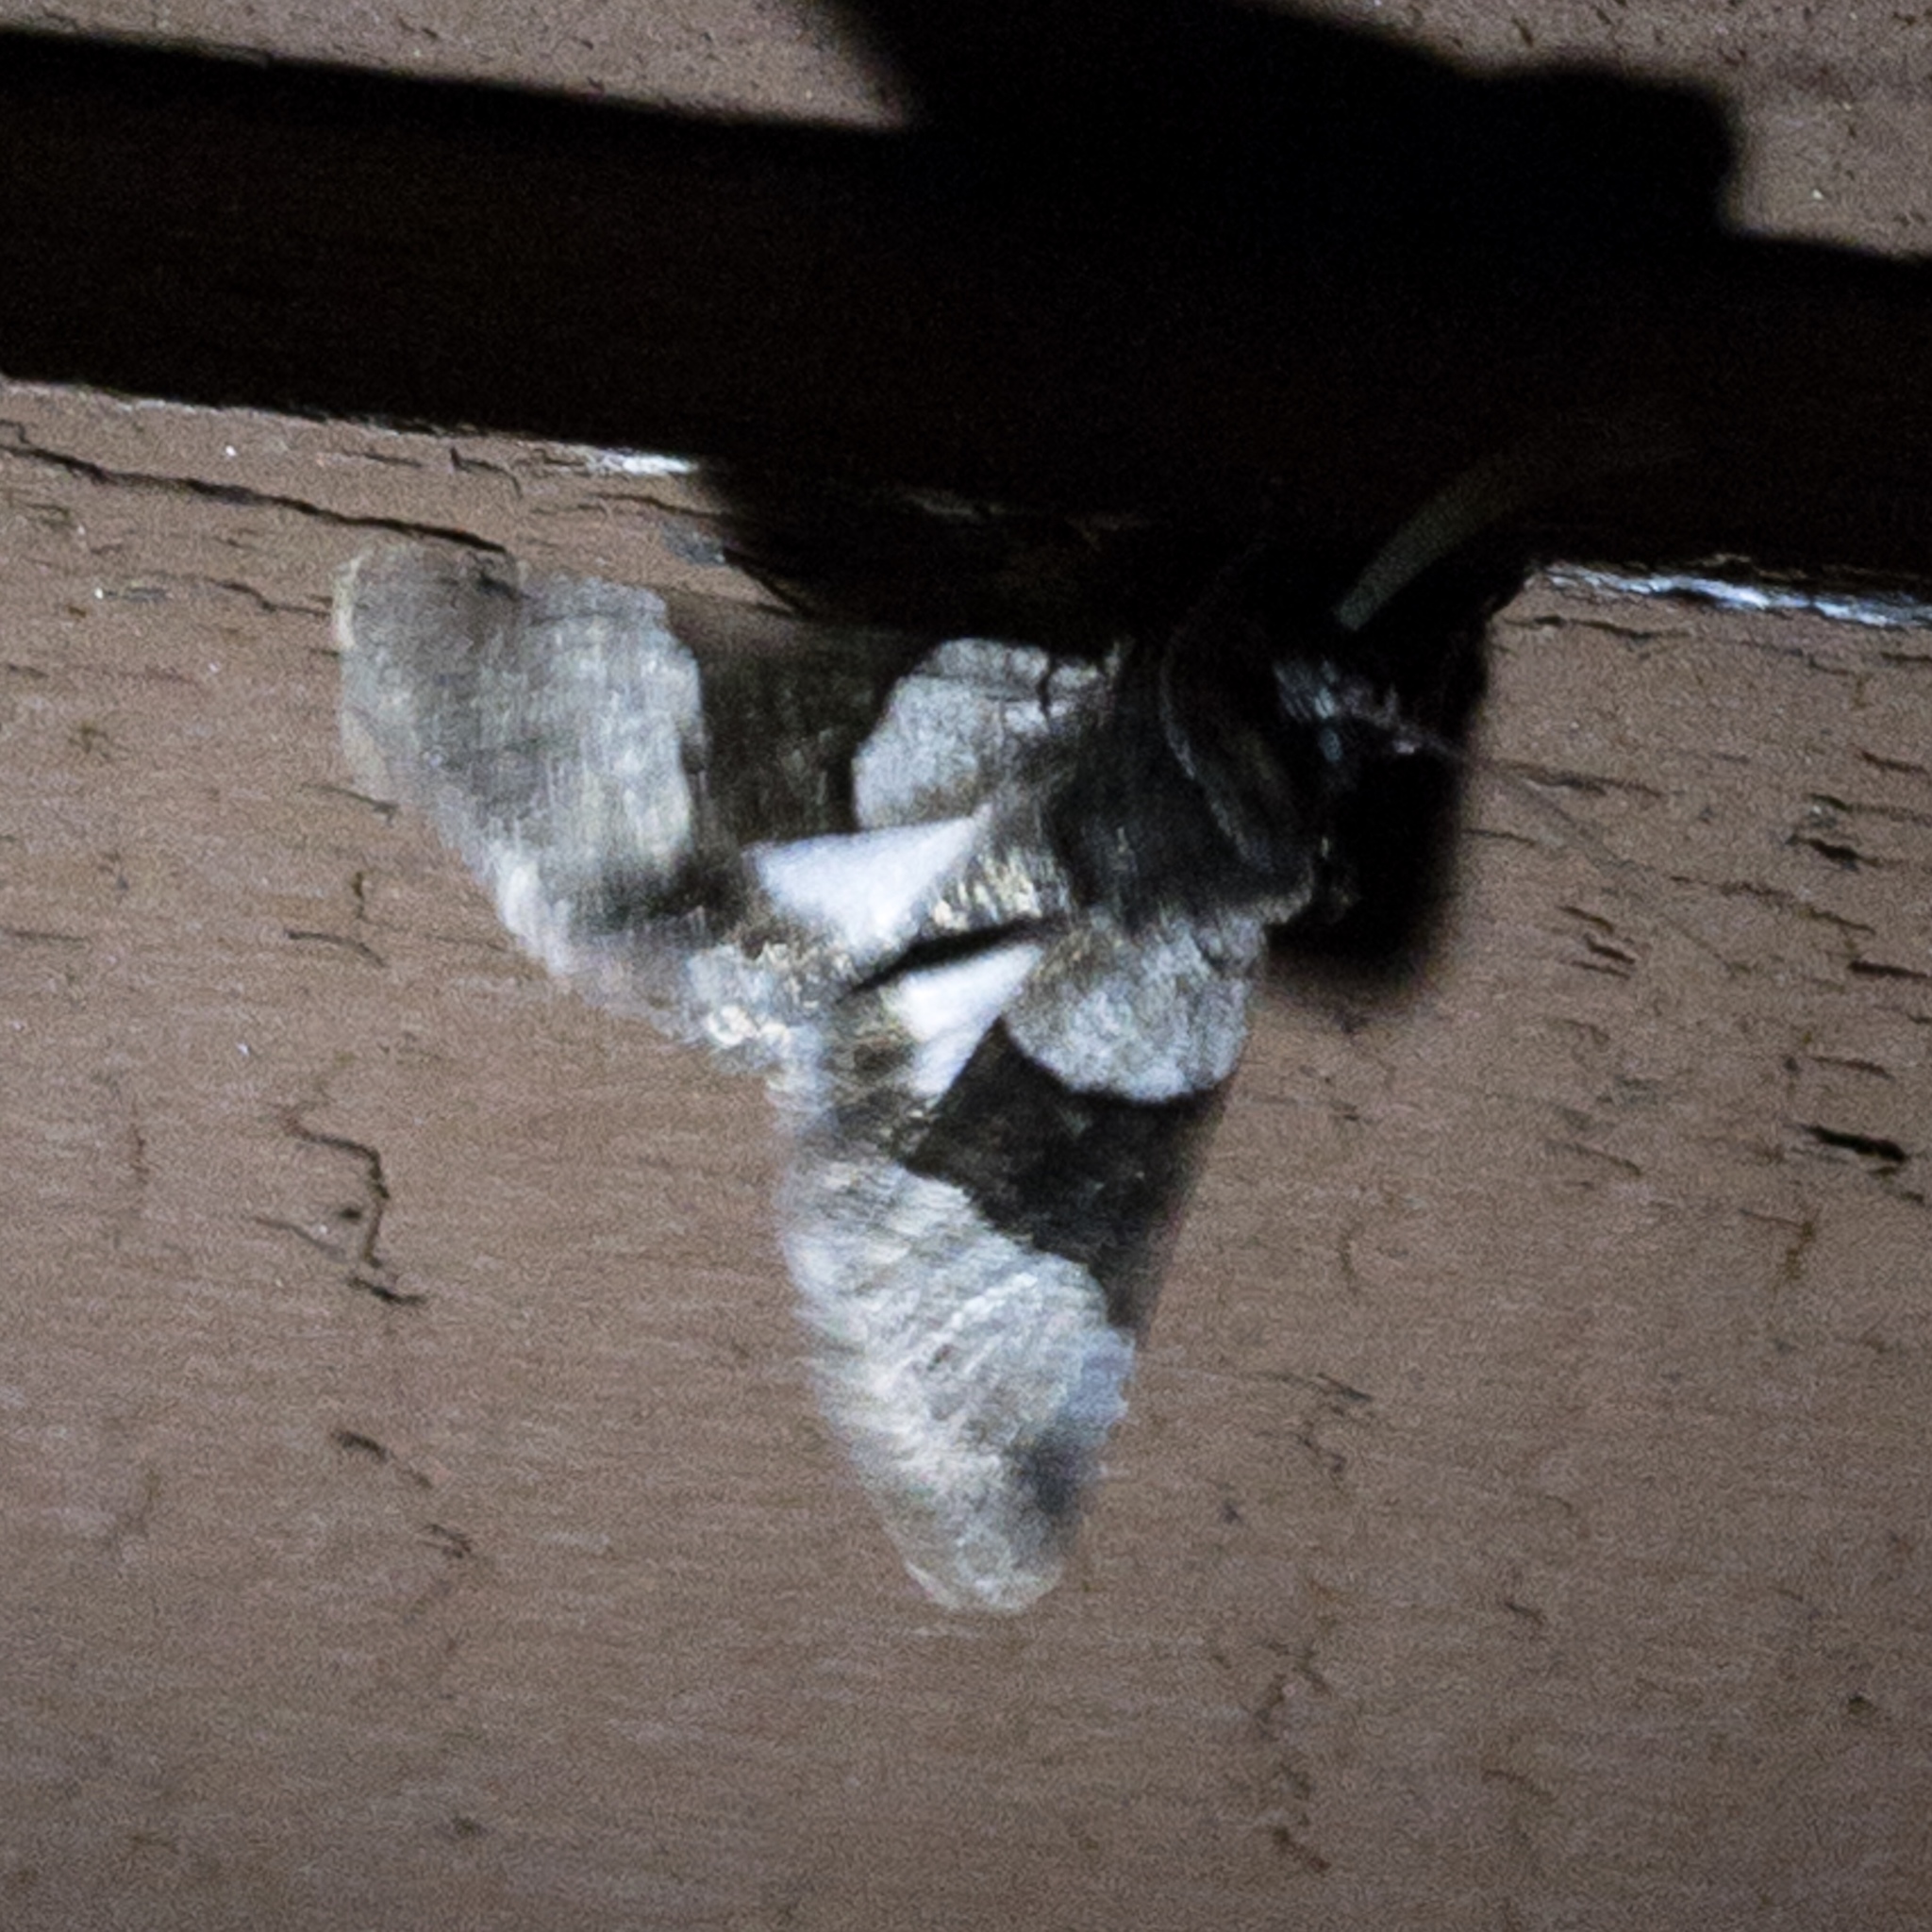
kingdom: Animalia
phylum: Arthropoda
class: Insecta
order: Lepidoptera
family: Noctuidae
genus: Sympistis
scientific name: Sympistis piffardi
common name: Three-striped oncocnemis
